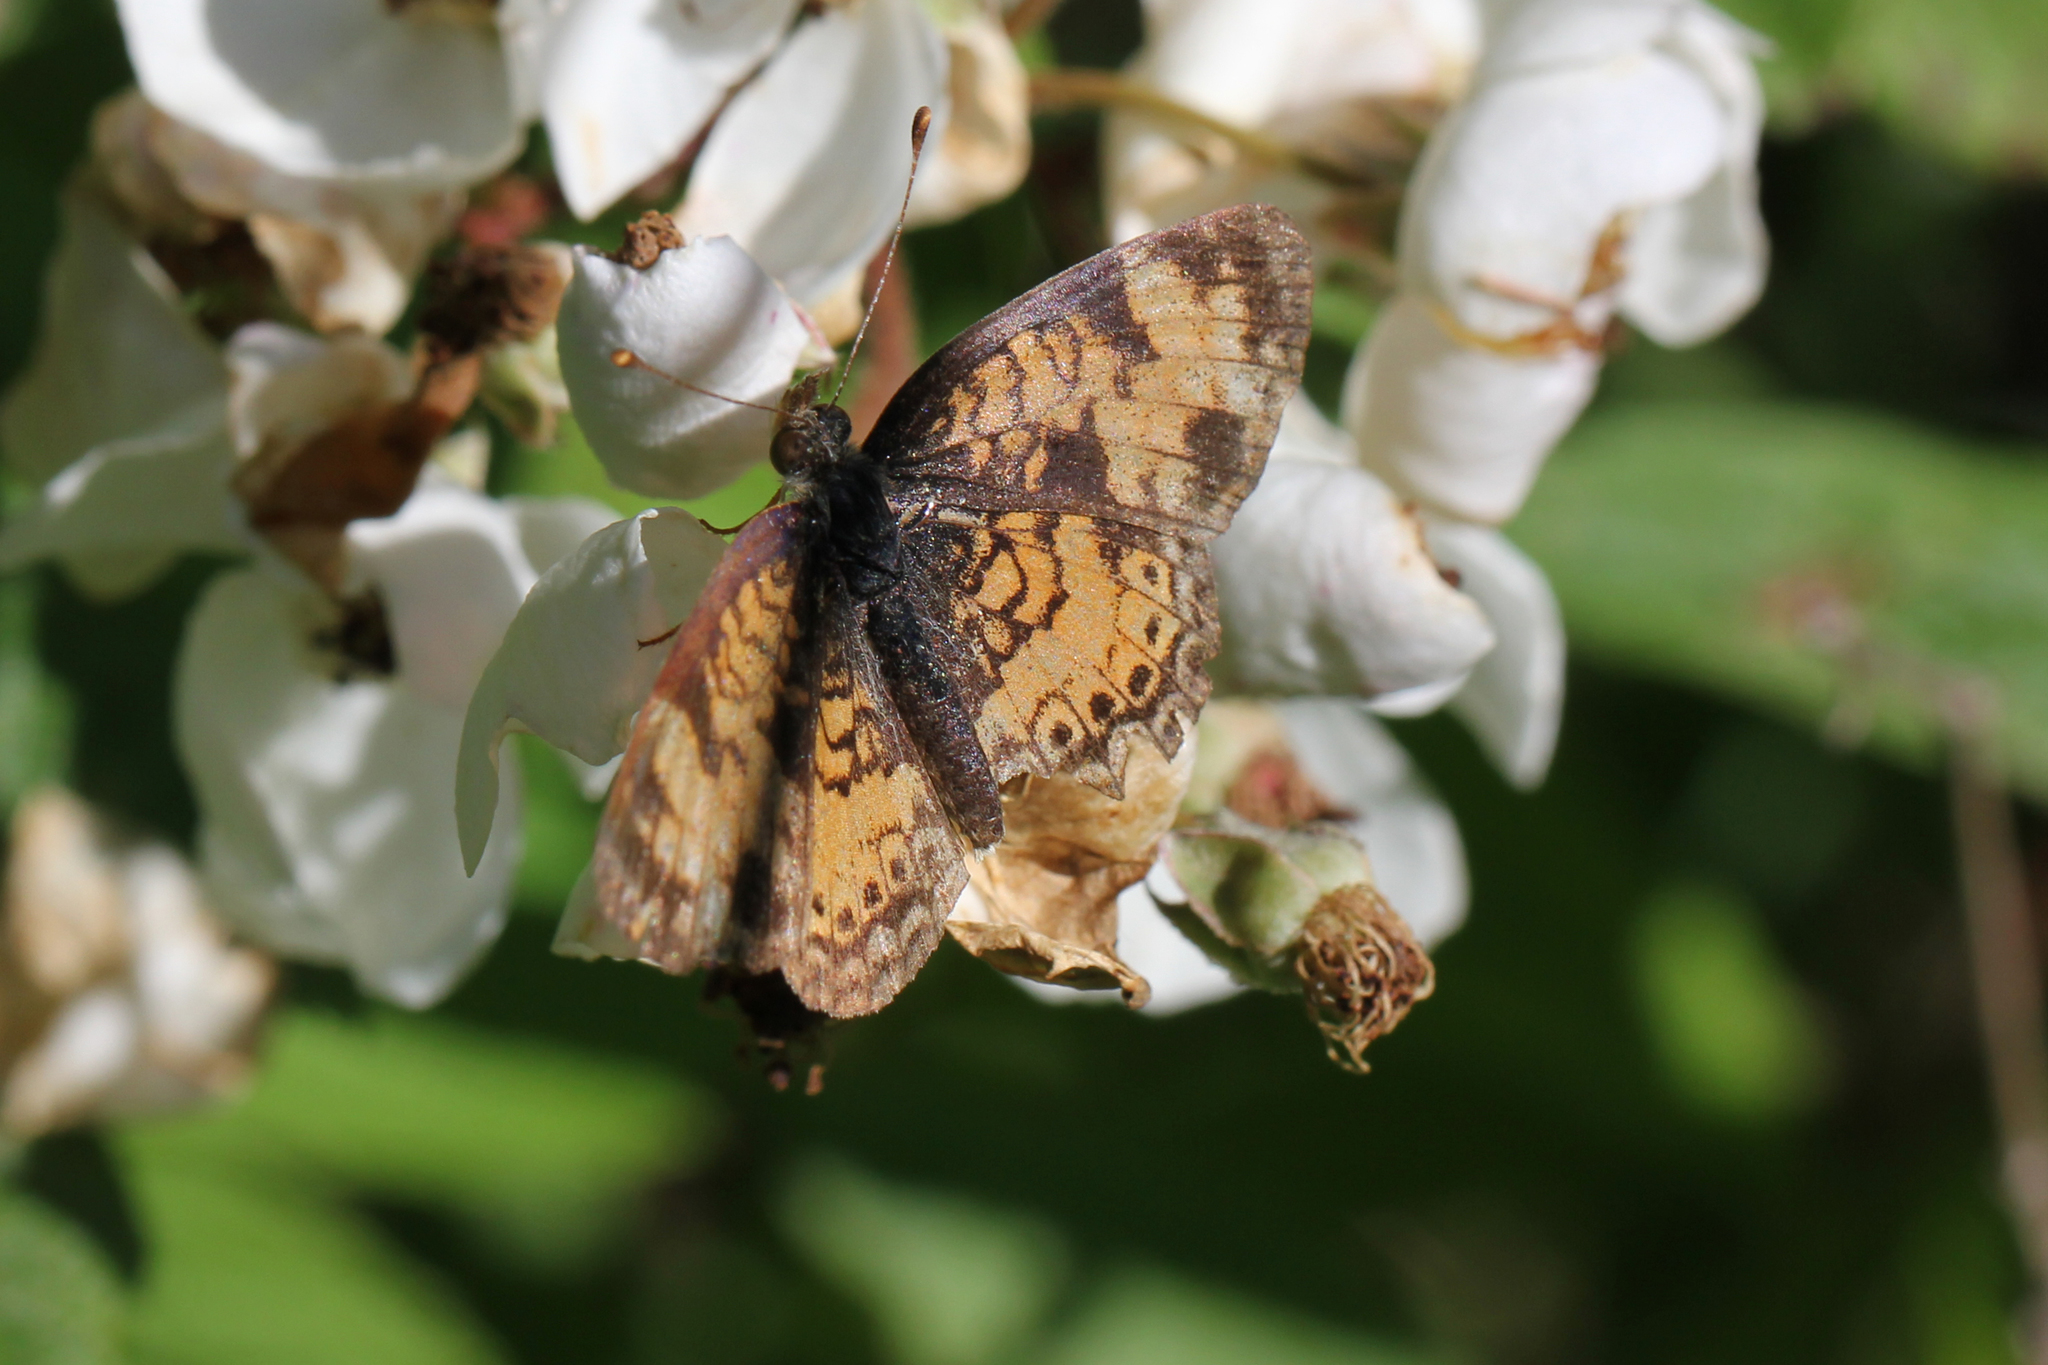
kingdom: Animalia
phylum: Arthropoda
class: Insecta
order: Lepidoptera
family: Nymphalidae
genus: Phyciodes
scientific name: Phyciodes tharos
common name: Pearl crescent
